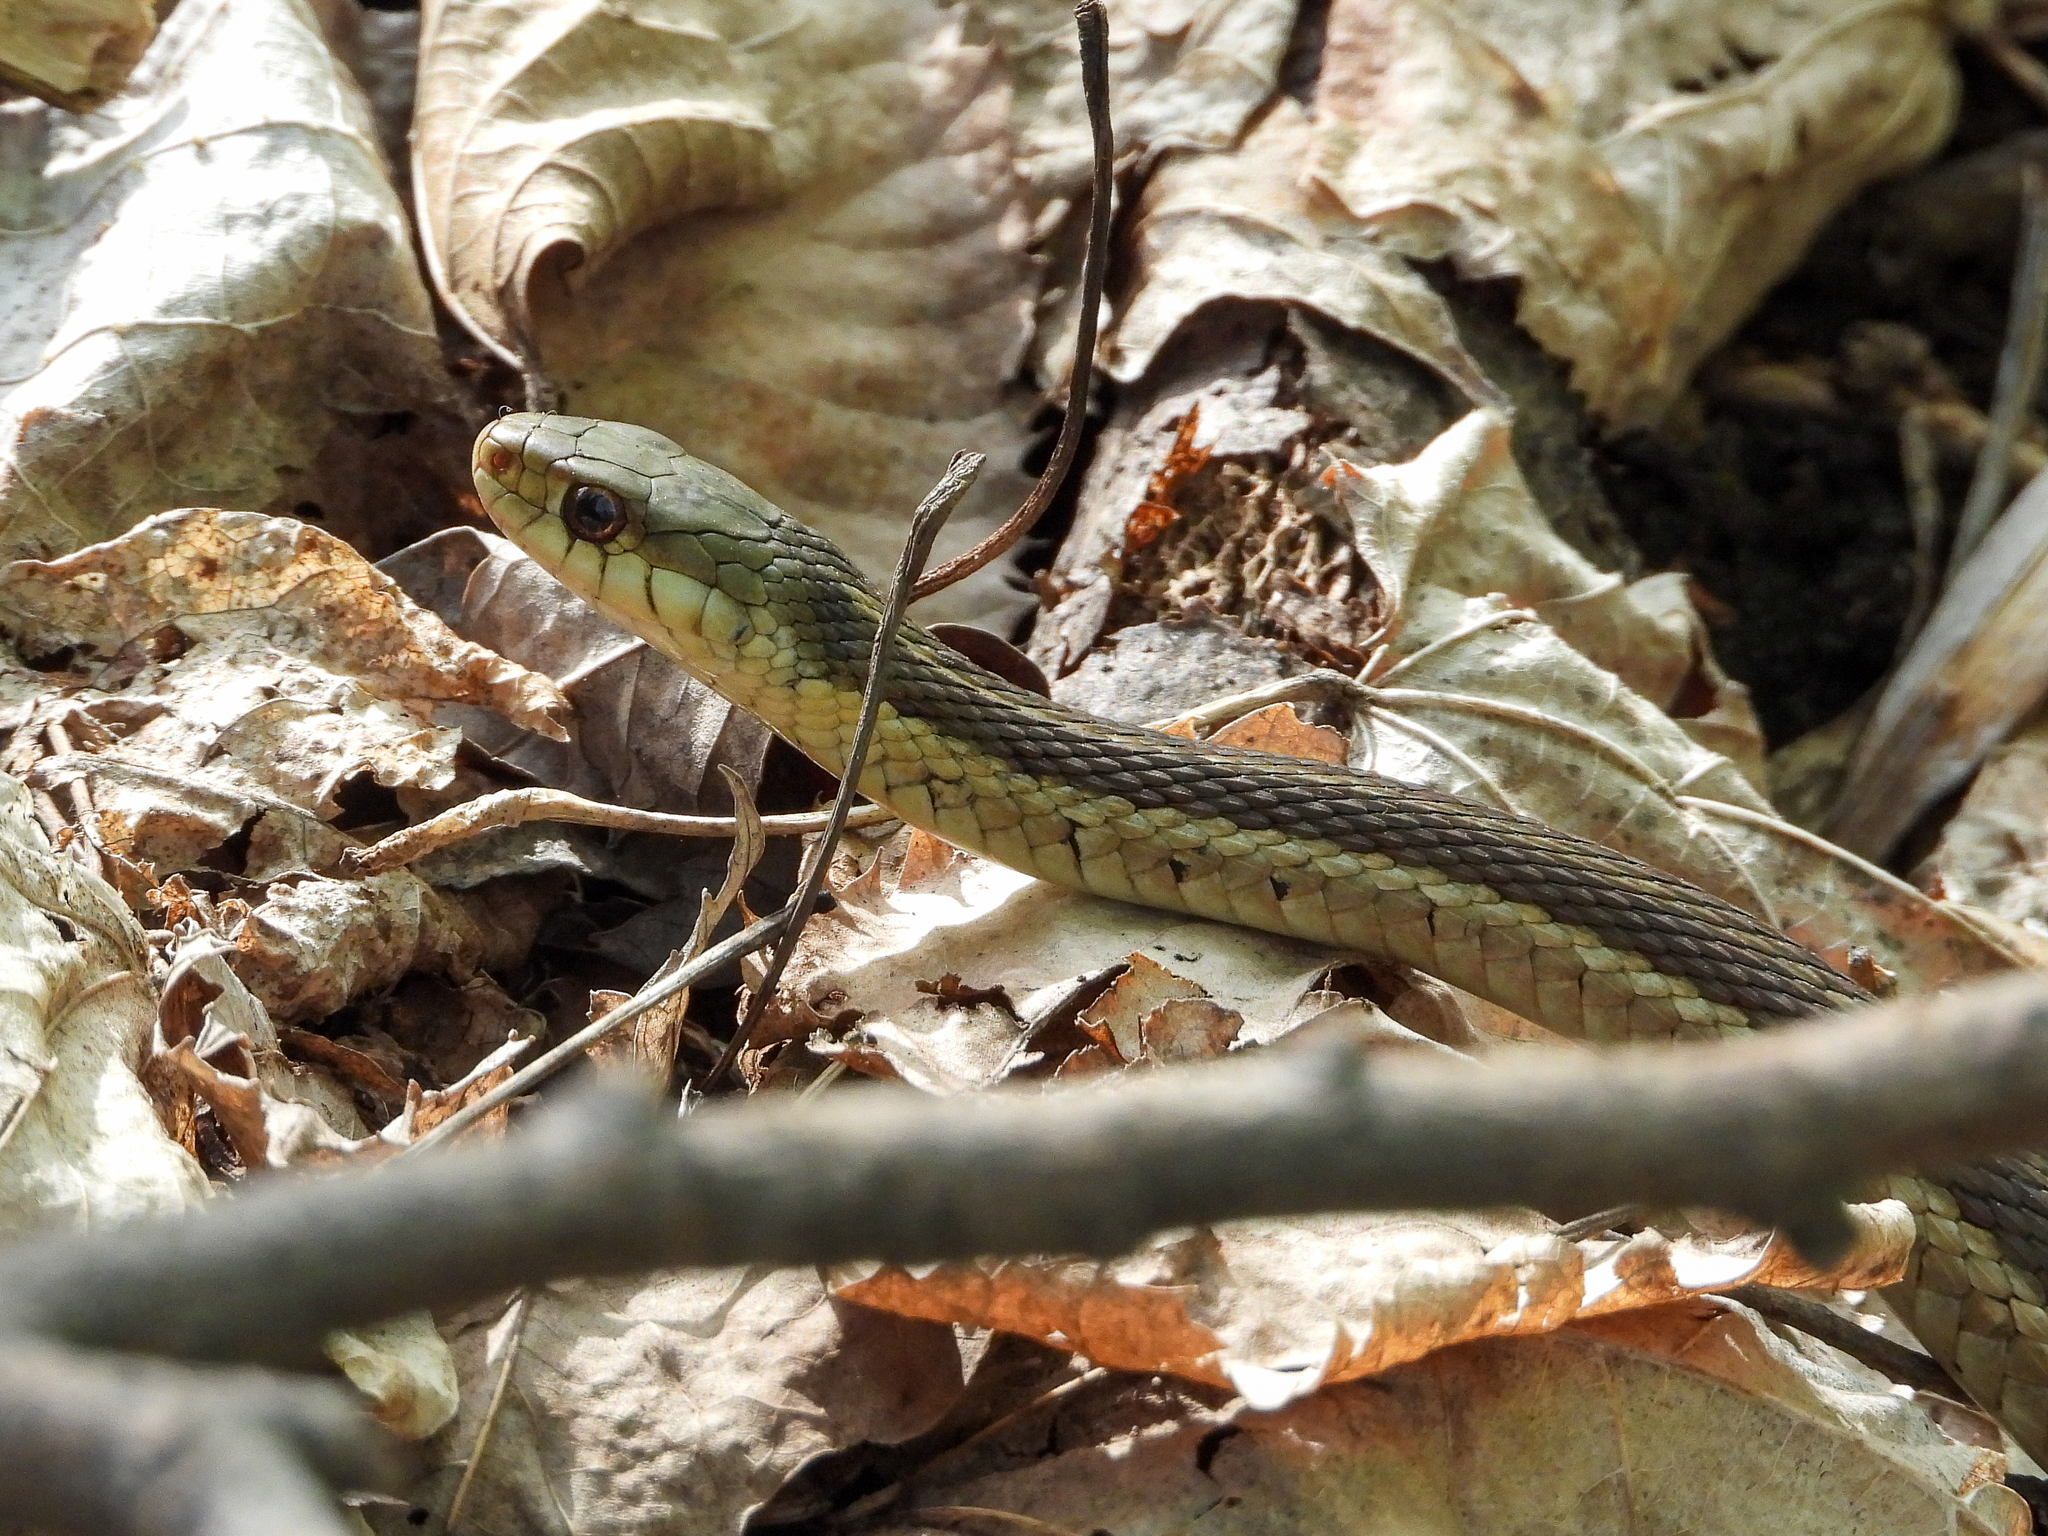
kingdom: Animalia
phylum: Chordata
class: Squamata
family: Colubridae
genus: Thamnophis
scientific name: Thamnophis sirtalis
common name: Common garter snake
